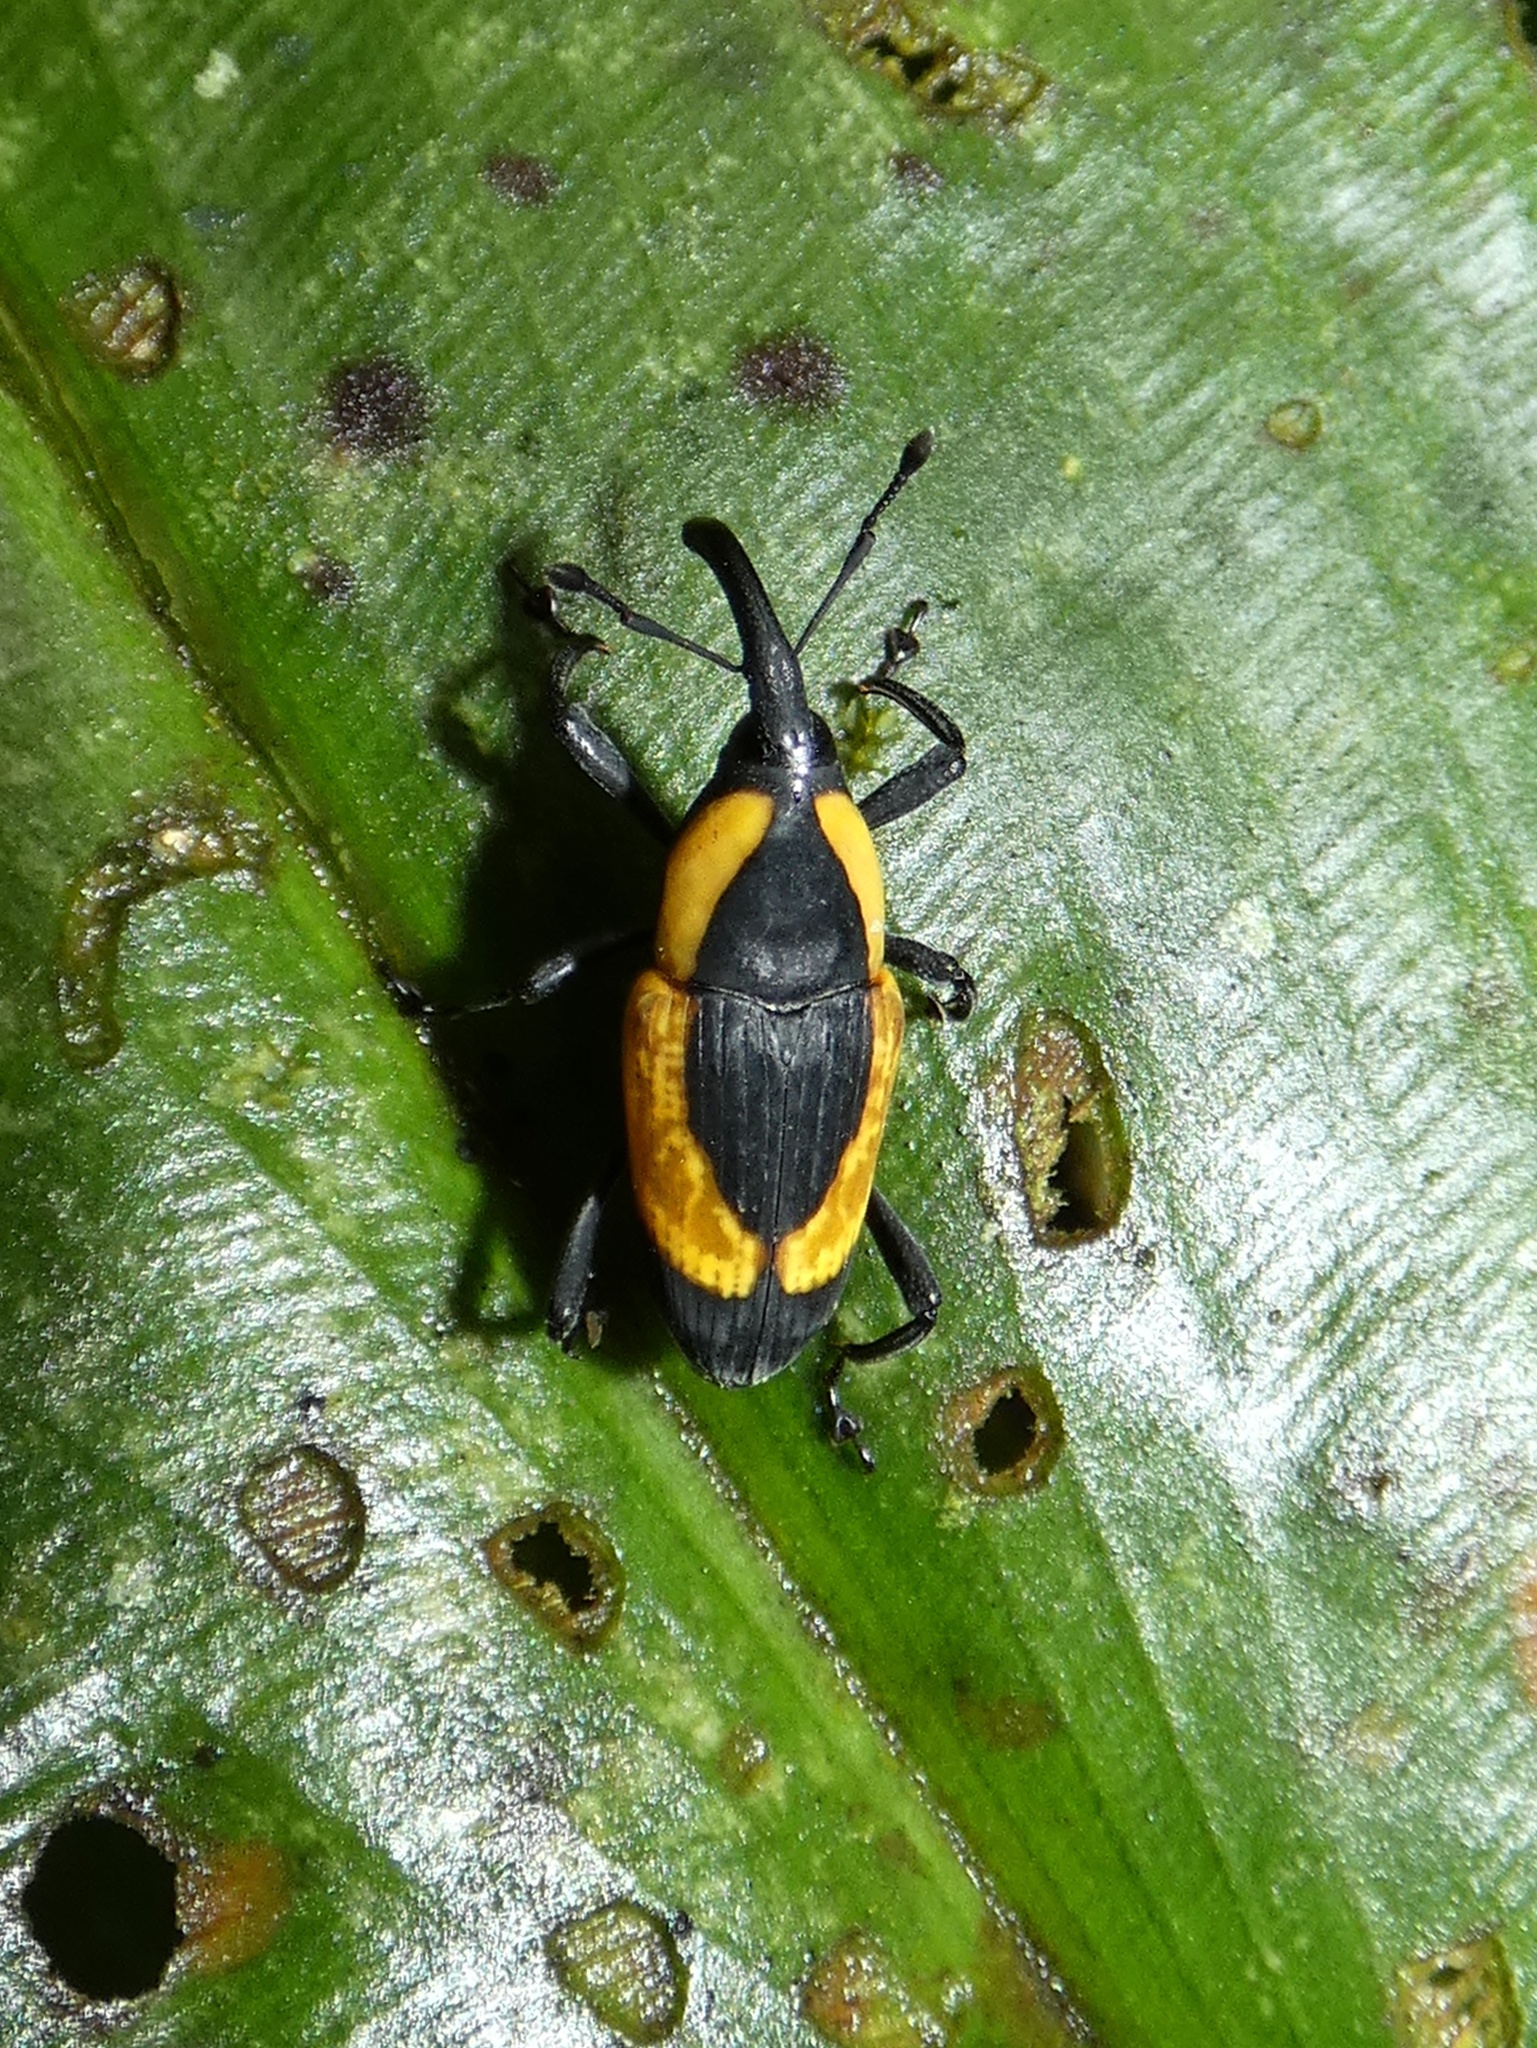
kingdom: Animalia
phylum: Arthropoda
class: Insecta
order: Coleoptera
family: Dryophthoridae
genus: Cactophagus
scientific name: Cactophagus circumdatus
